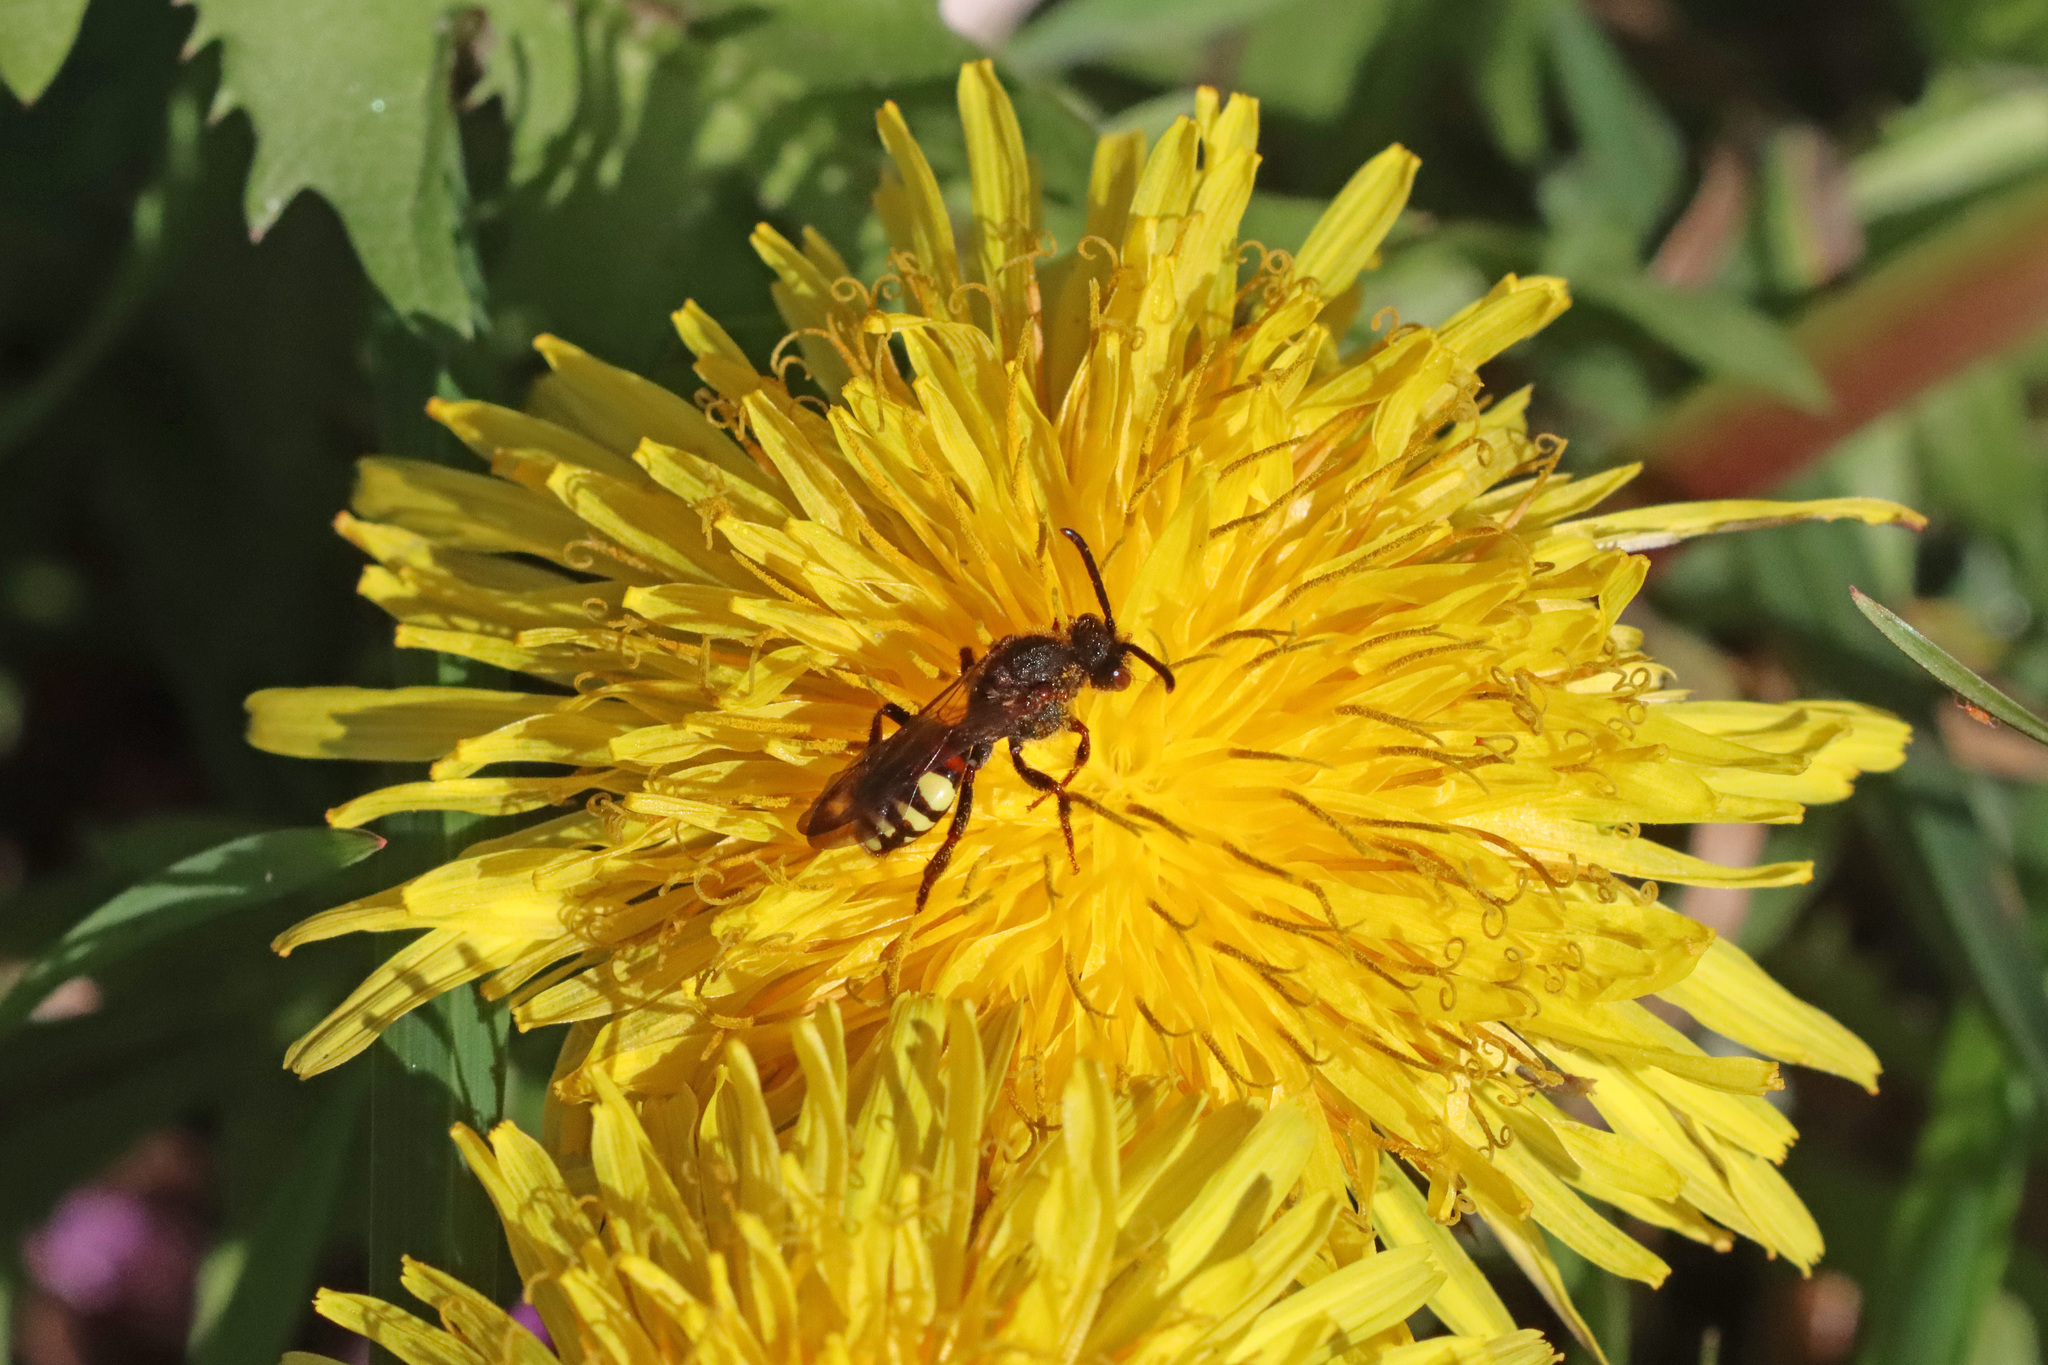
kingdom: Animalia
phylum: Arthropoda
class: Insecta
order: Hymenoptera
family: Apidae
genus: Nomada
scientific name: Nomada leucophthalma
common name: Early nomad bee
